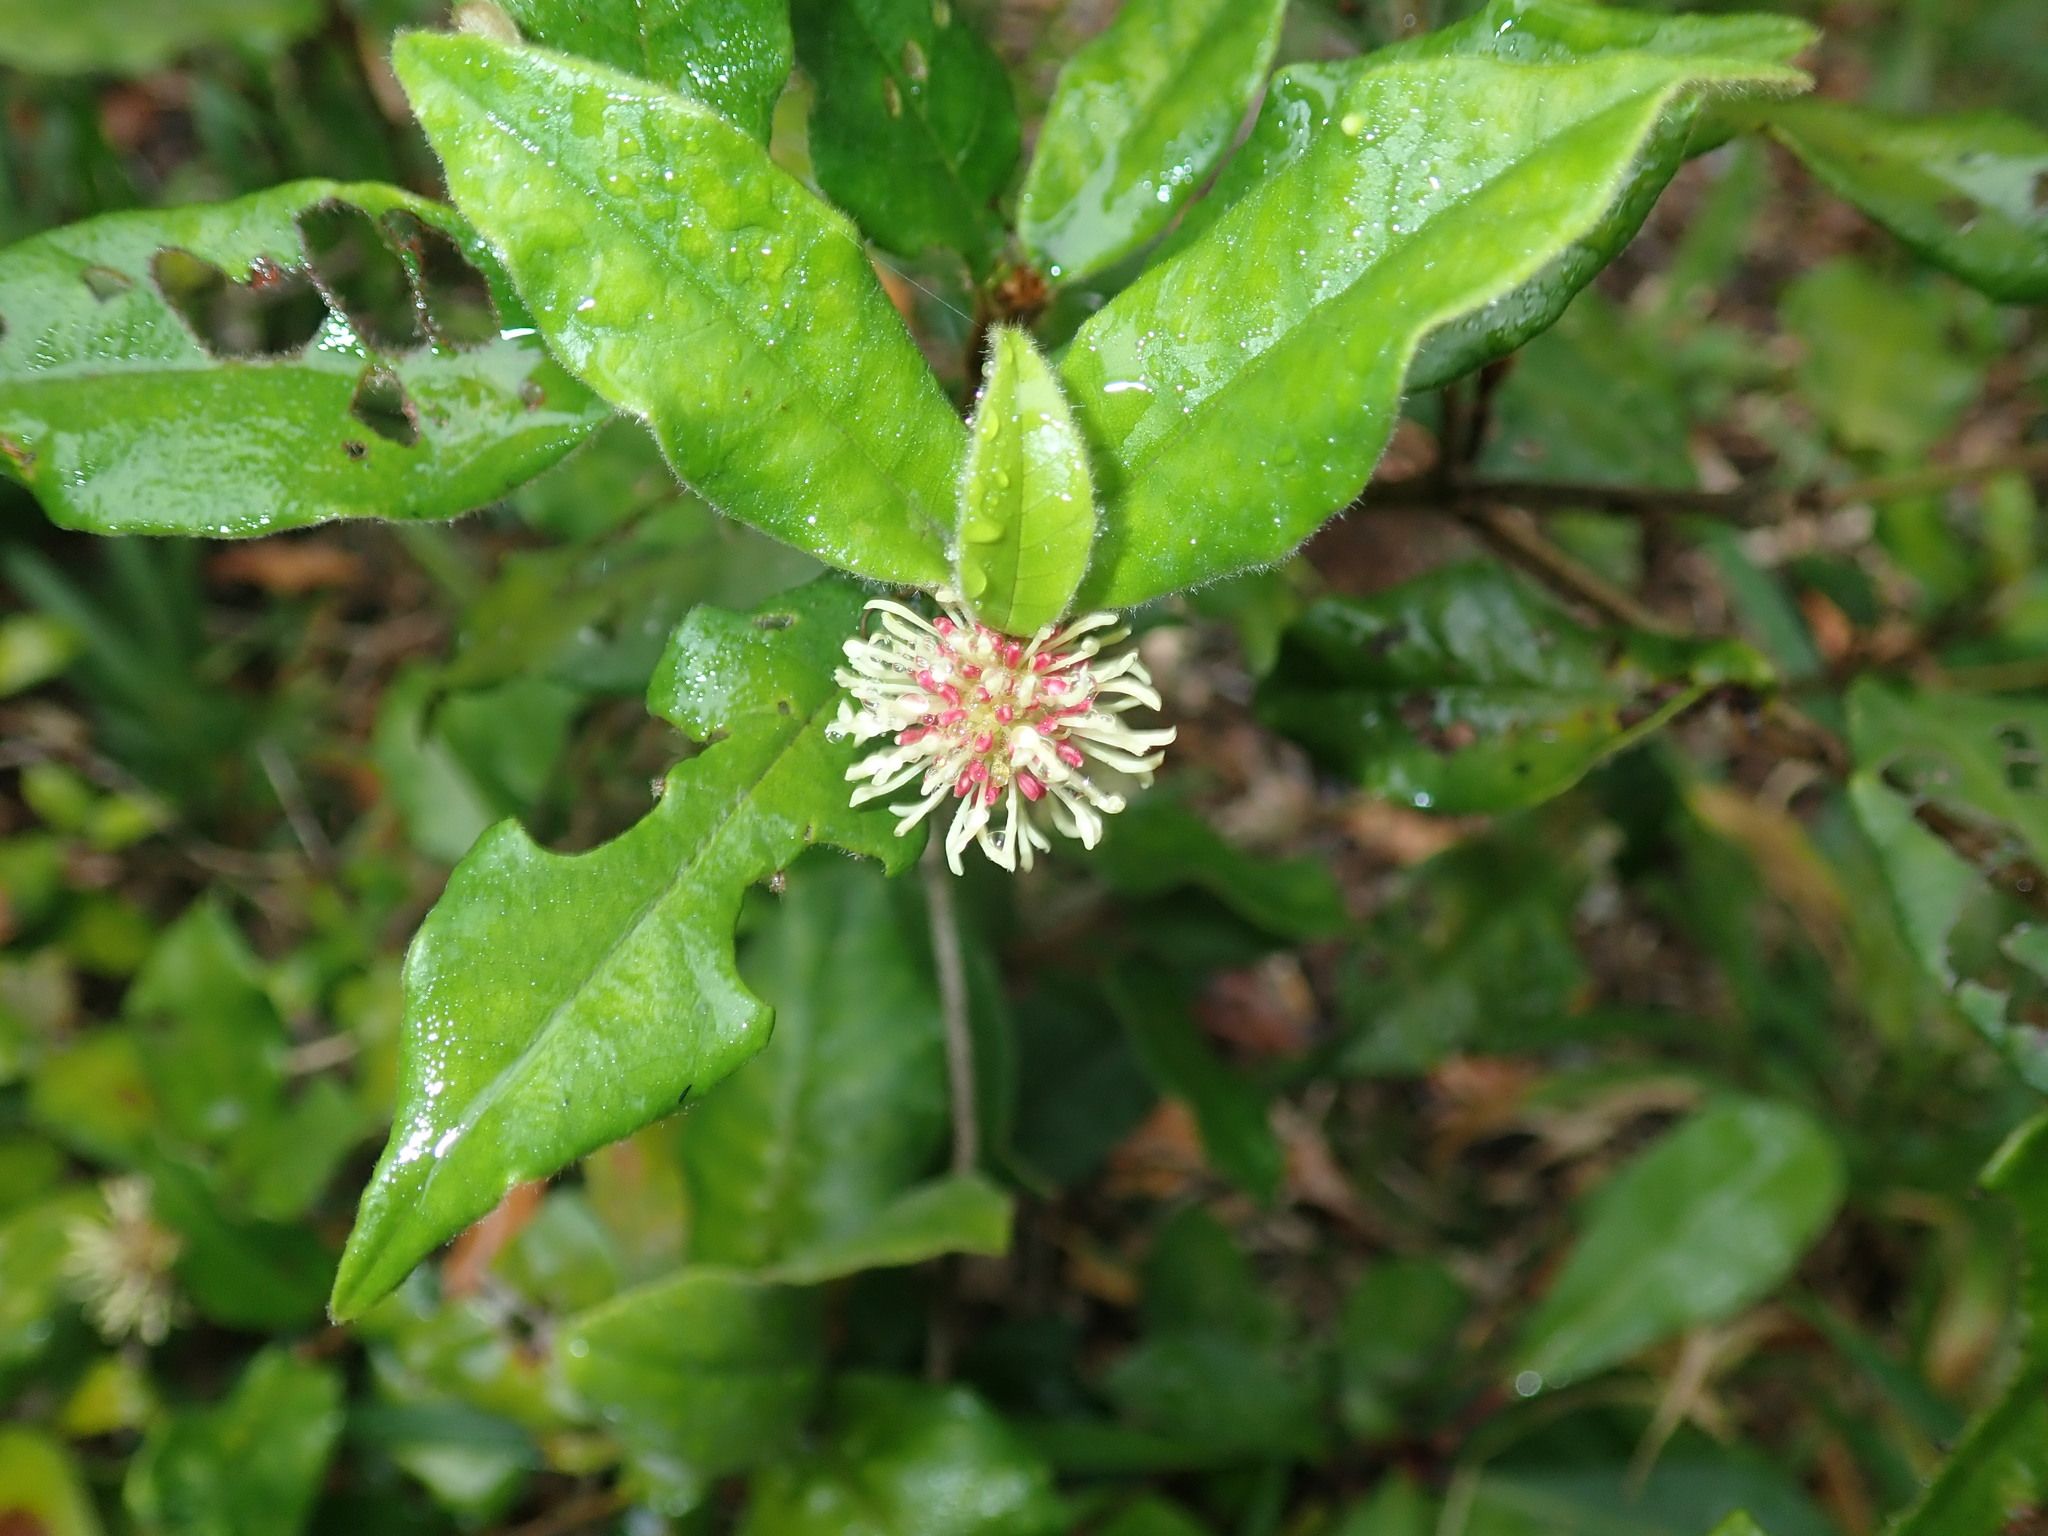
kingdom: Plantae
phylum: Tracheophyta
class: Magnoliopsida
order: Saxifragales
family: Hamamelidaceae
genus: Trichocladus
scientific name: Trichocladus crinitus
